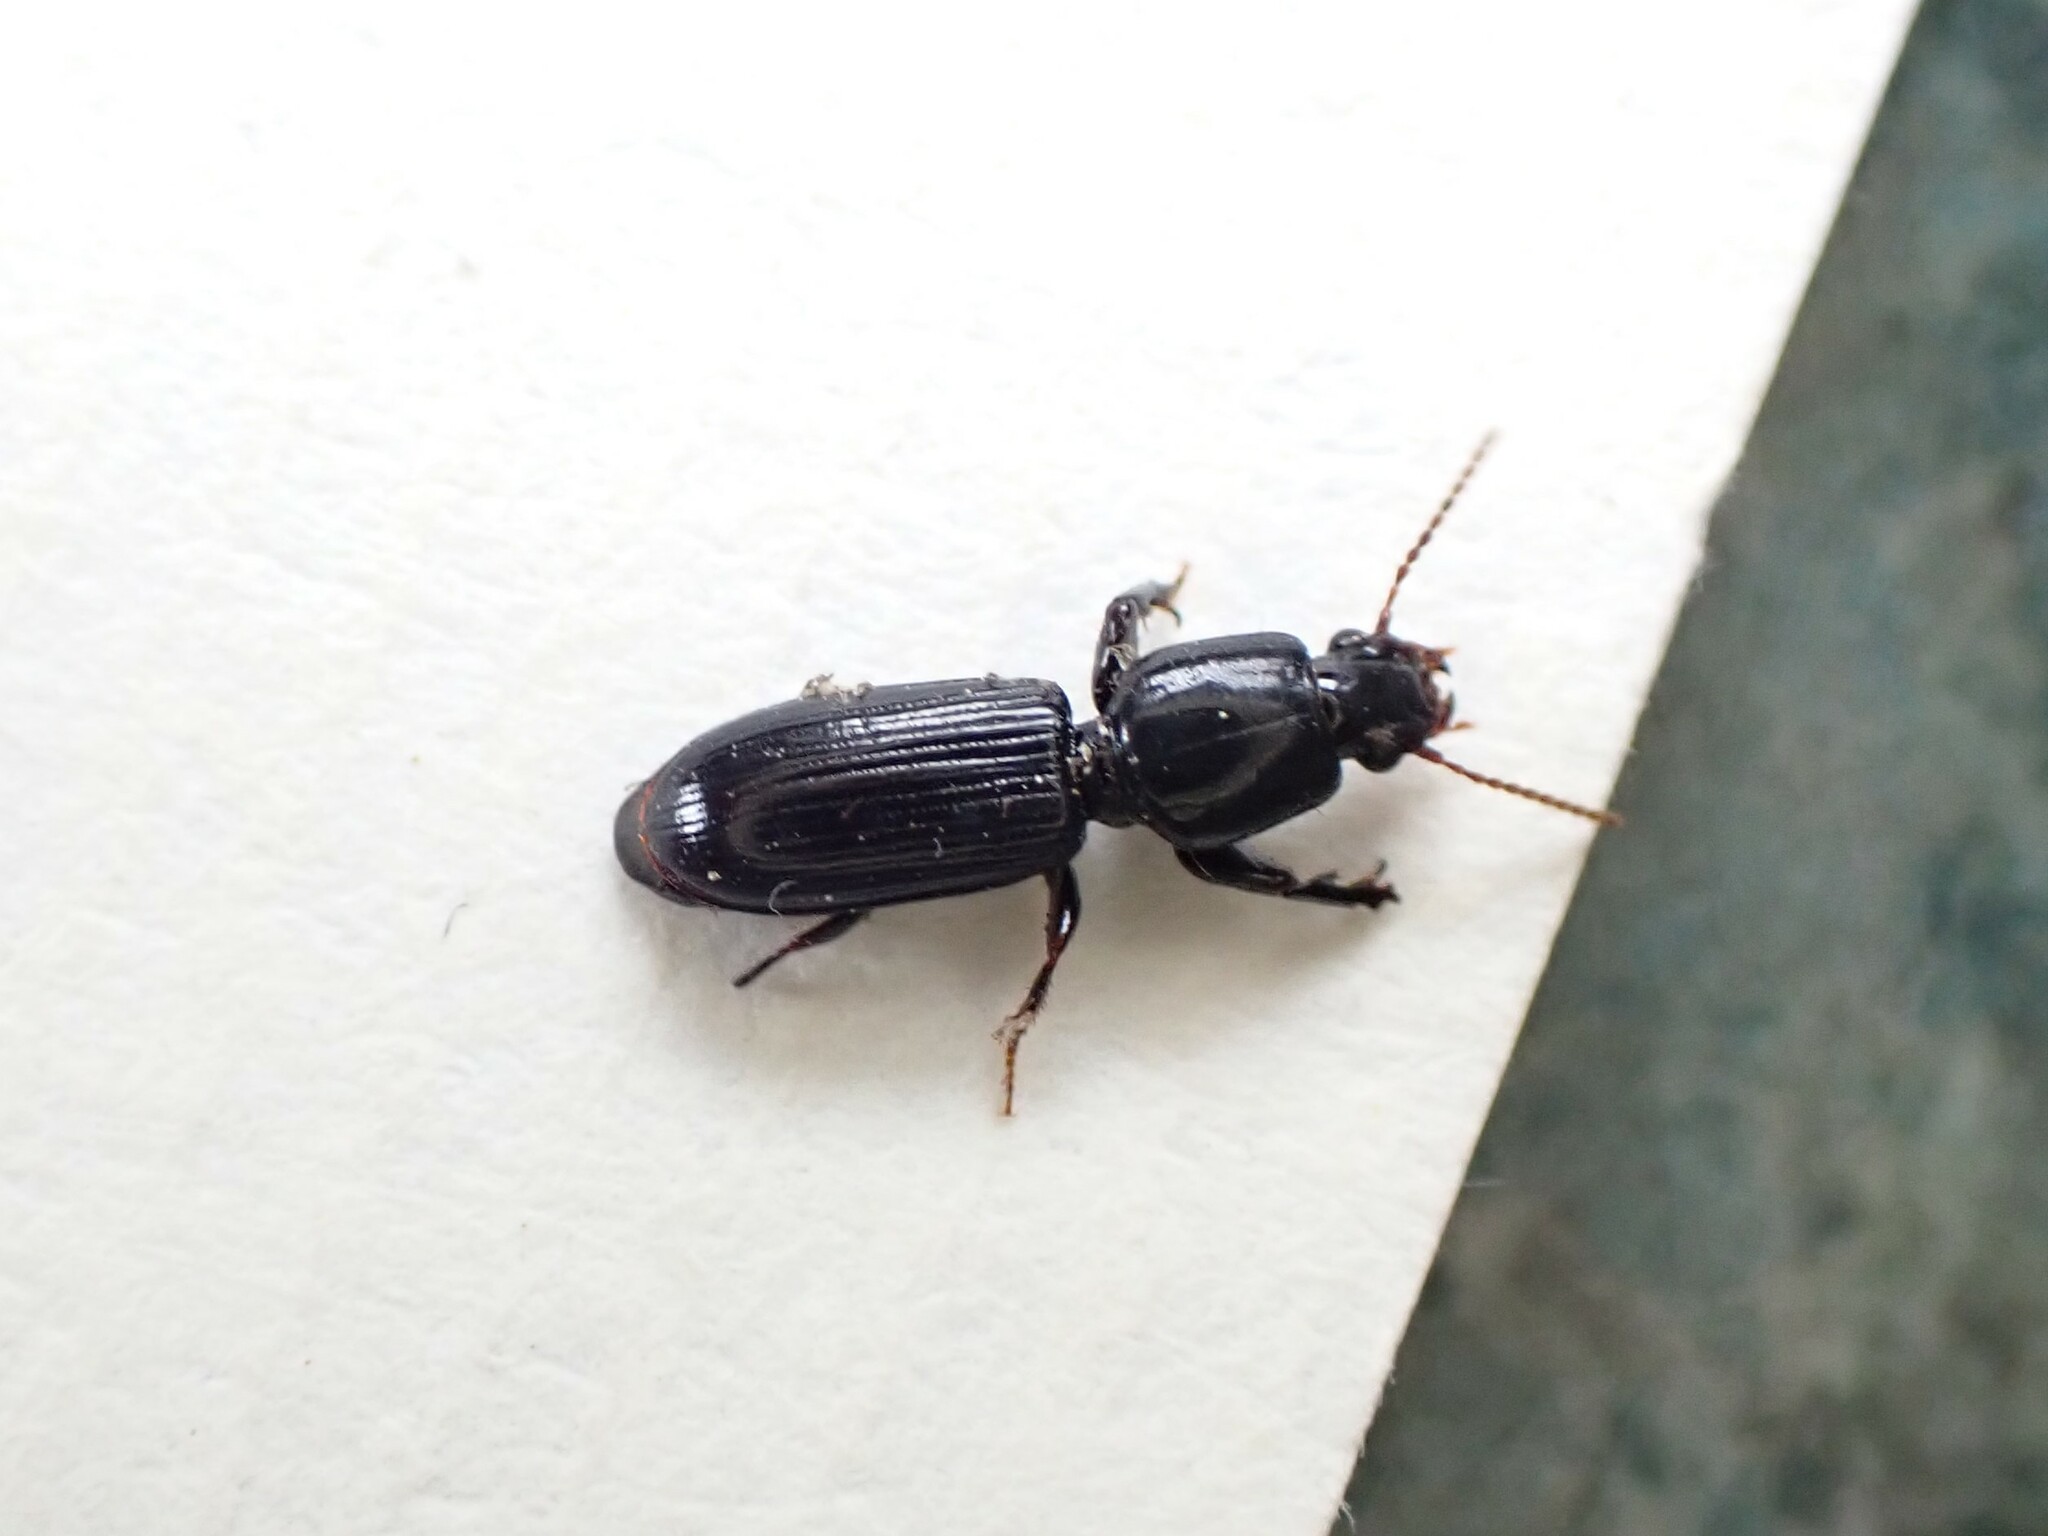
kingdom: Animalia
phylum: Arthropoda
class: Insecta
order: Coleoptera
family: Carabidae
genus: Clivina
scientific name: Clivina vagans
